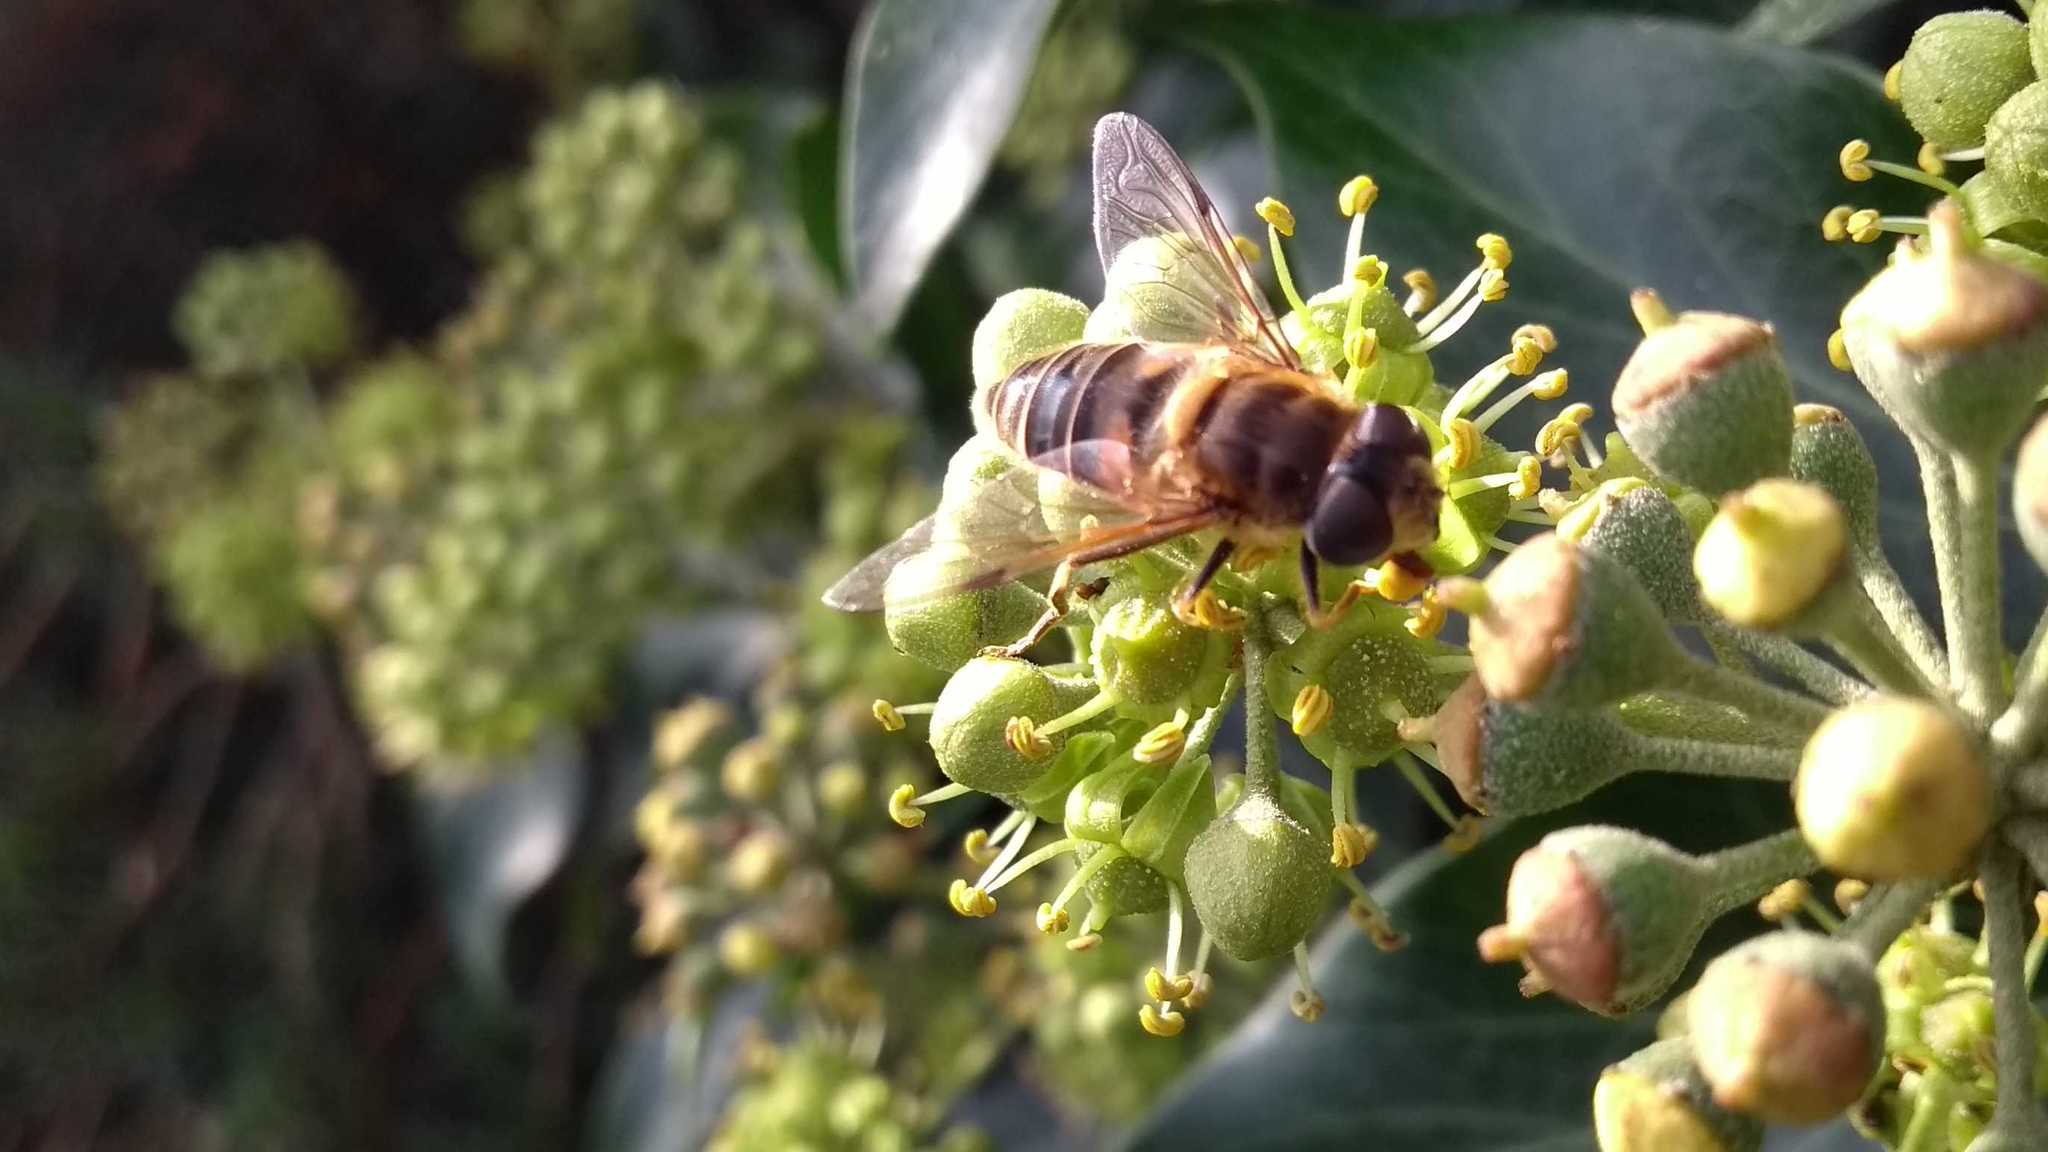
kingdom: Animalia
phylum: Arthropoda
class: Insecta
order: Diptera
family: Syrphidae
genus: Eristalis
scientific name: Eristalis pertinax
